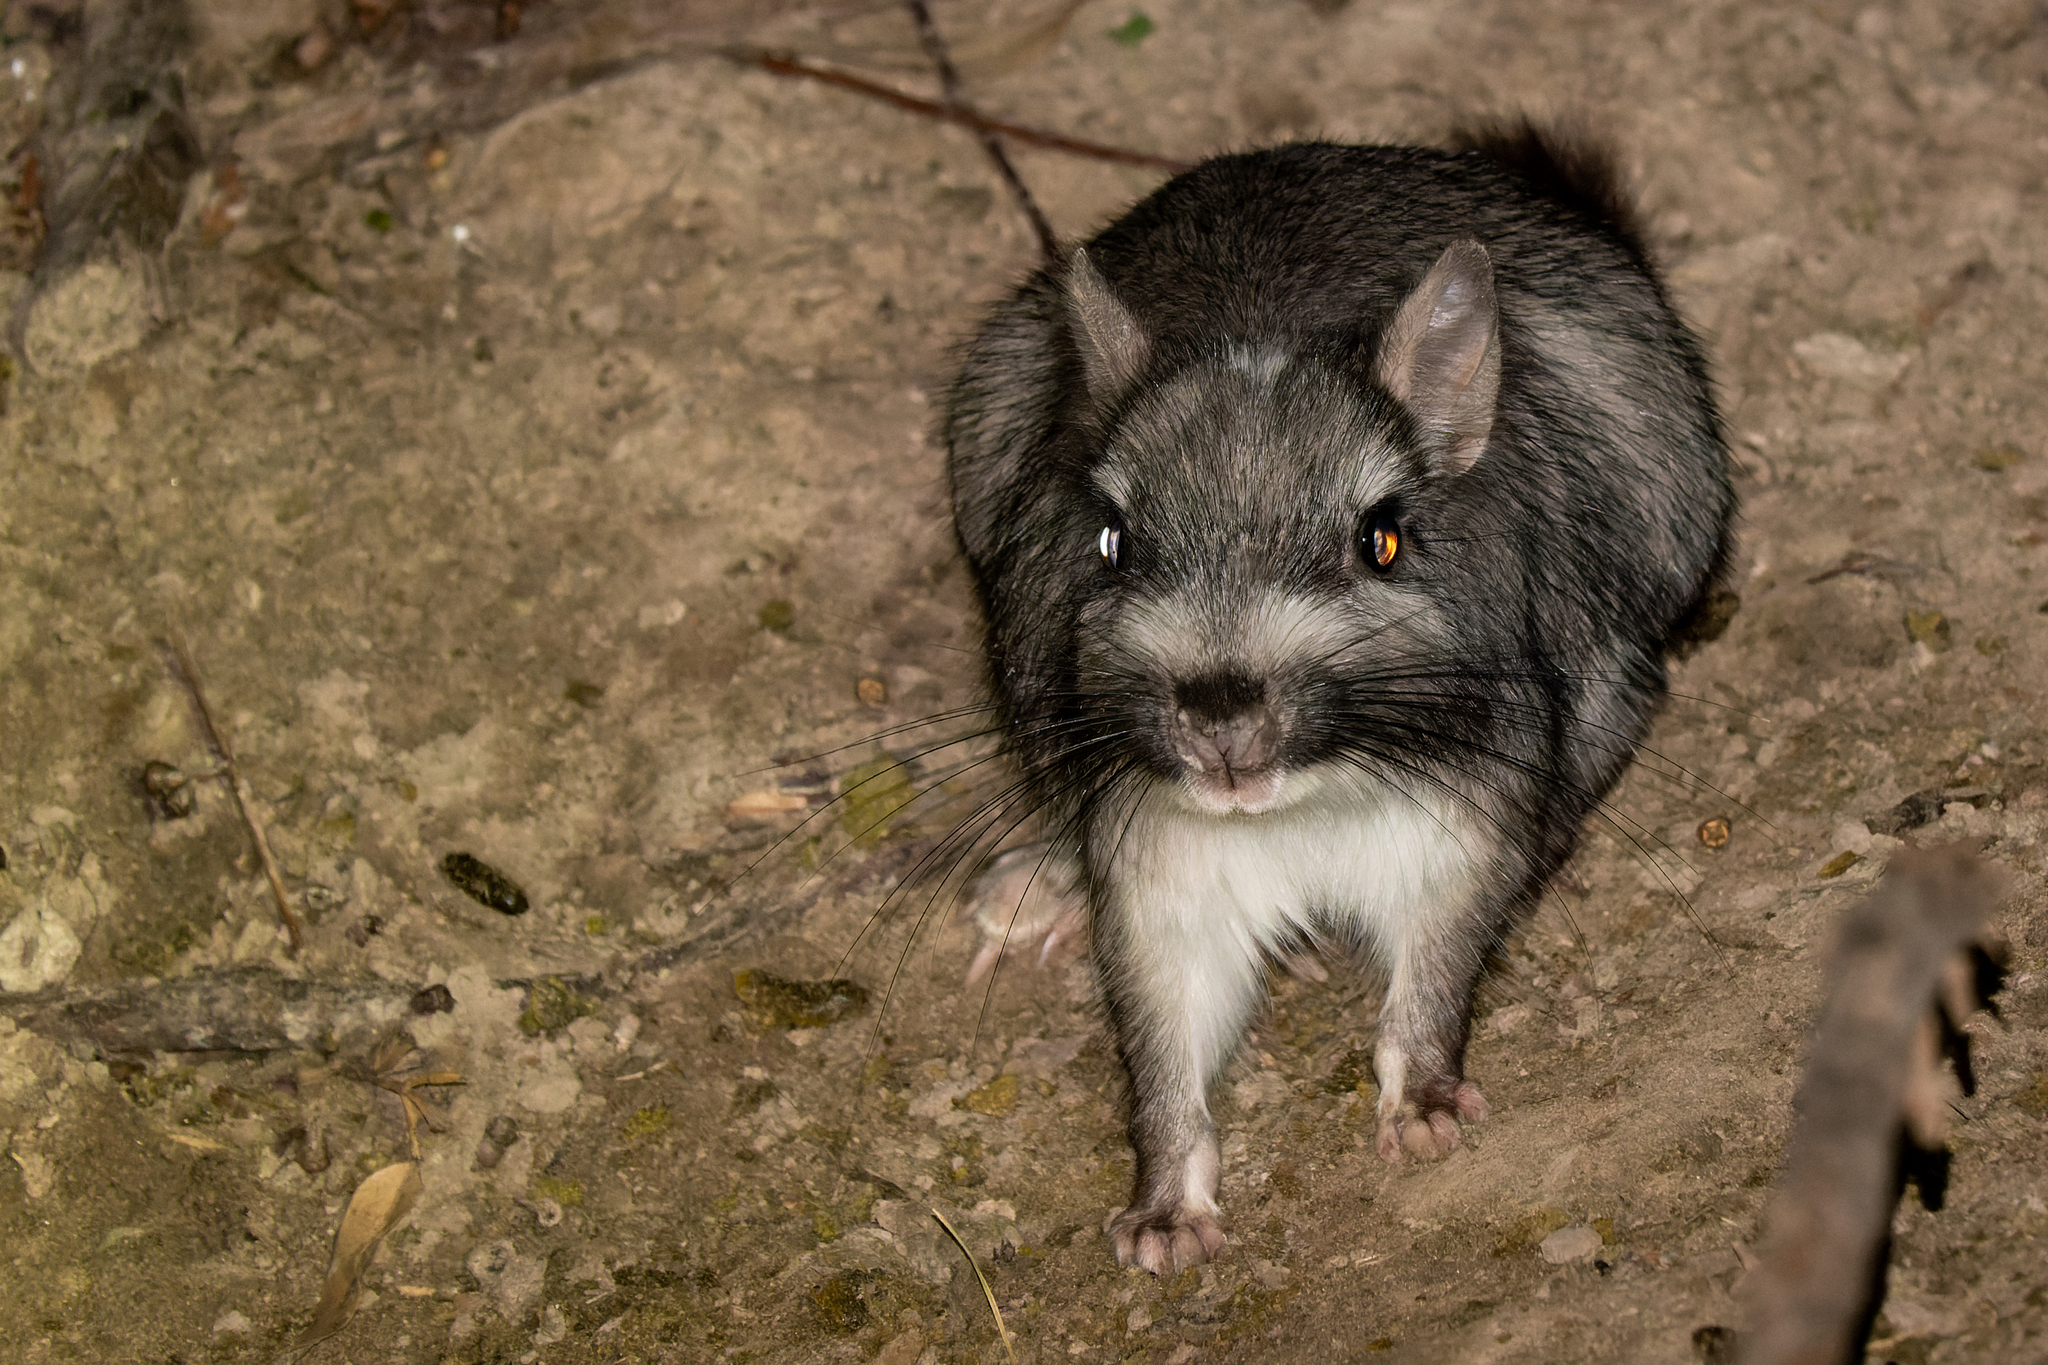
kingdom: Animalia
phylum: Chordata
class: Mammalia
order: Rodentia
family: Chinchillidae
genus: Lagostomus
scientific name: Lagostomus maximus
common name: Plains viscacha
